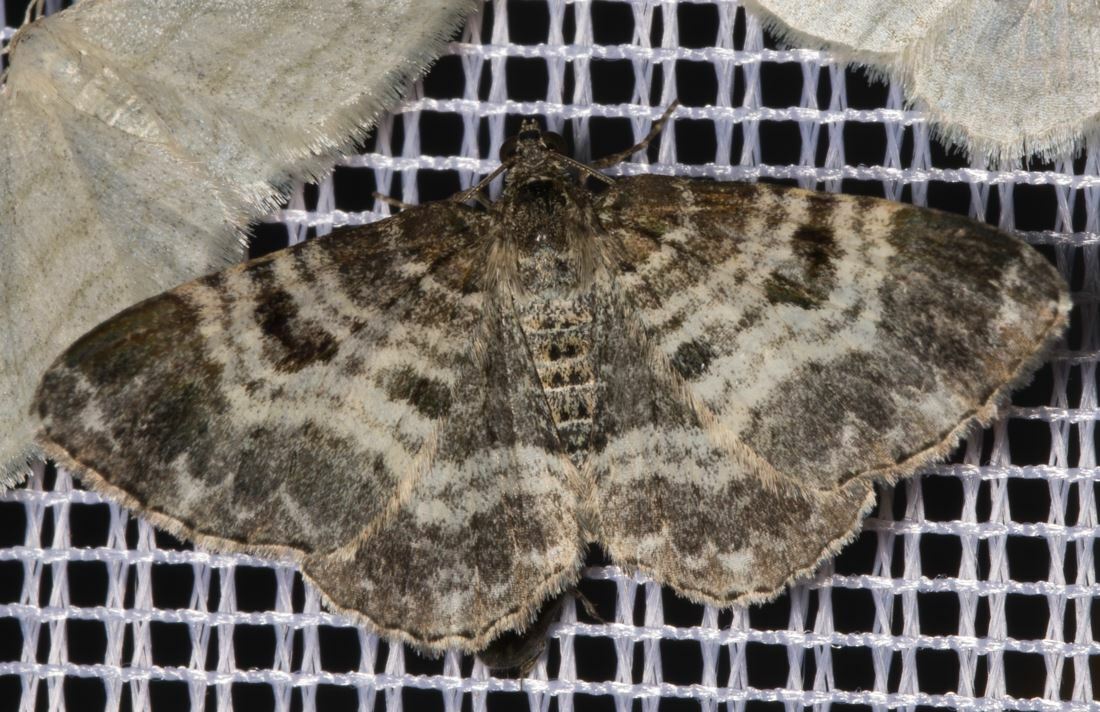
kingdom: Animalia
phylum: Arthropoda
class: Insecta
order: Lepidoptera
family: Geometridae
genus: Epirrhoe
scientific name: Epirrhoe alternata
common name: Common carpet
